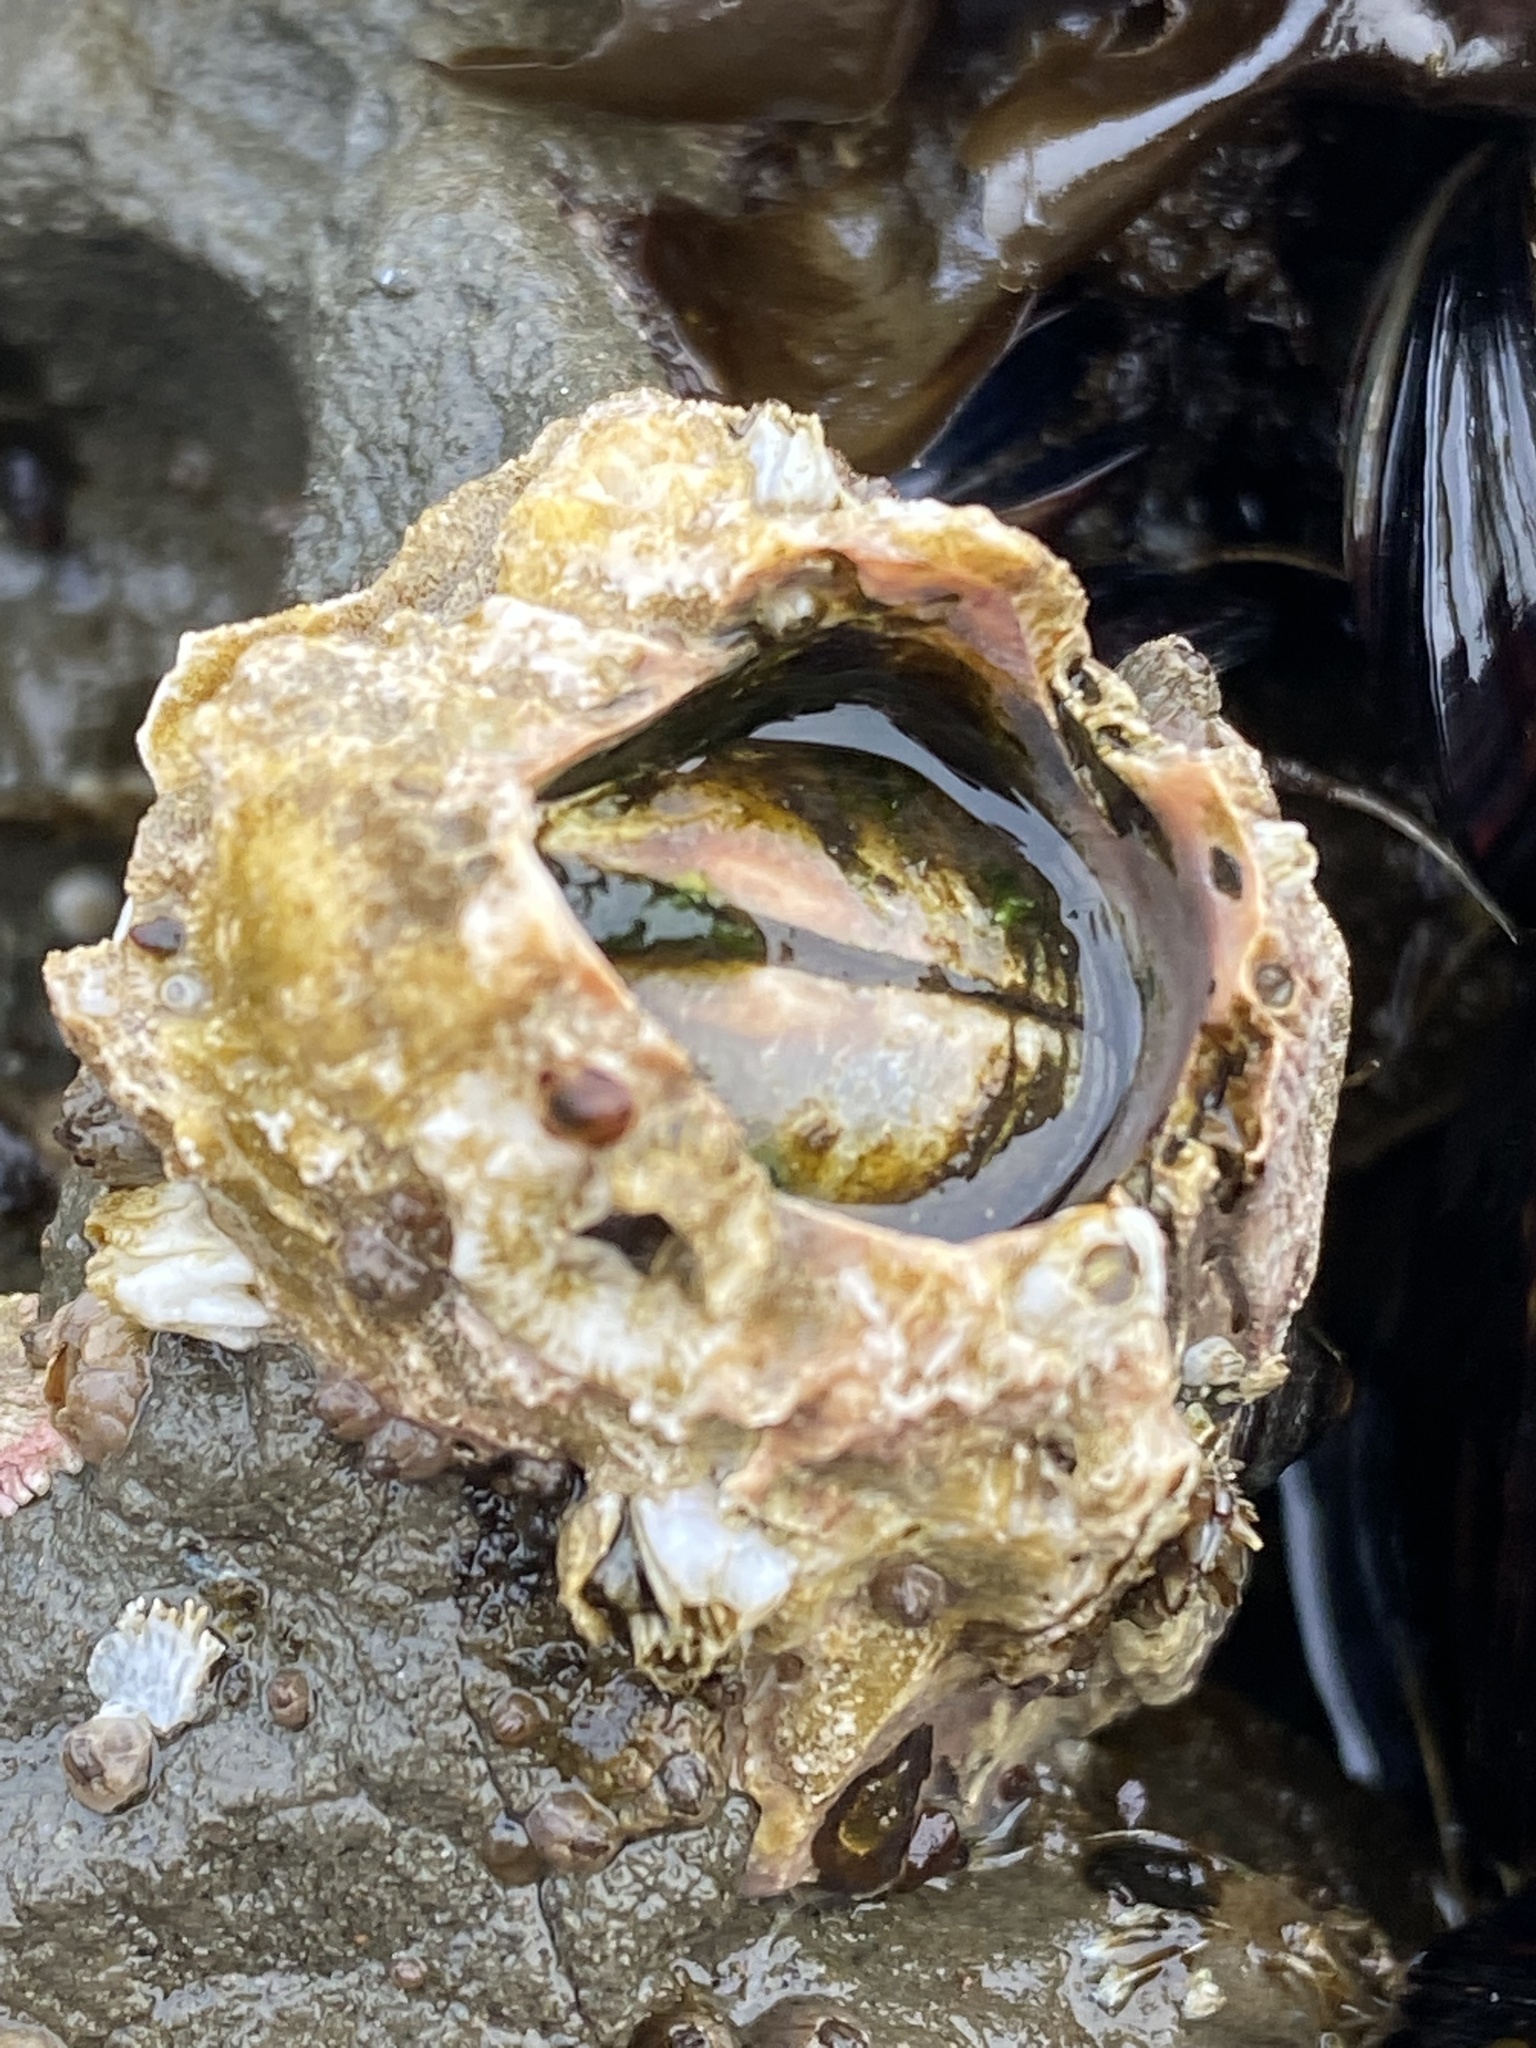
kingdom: Animalia
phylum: Arthropoda
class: Maxillopoda
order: Sessilia
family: Balanidae
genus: Balanus
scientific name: Balanus nubilus
